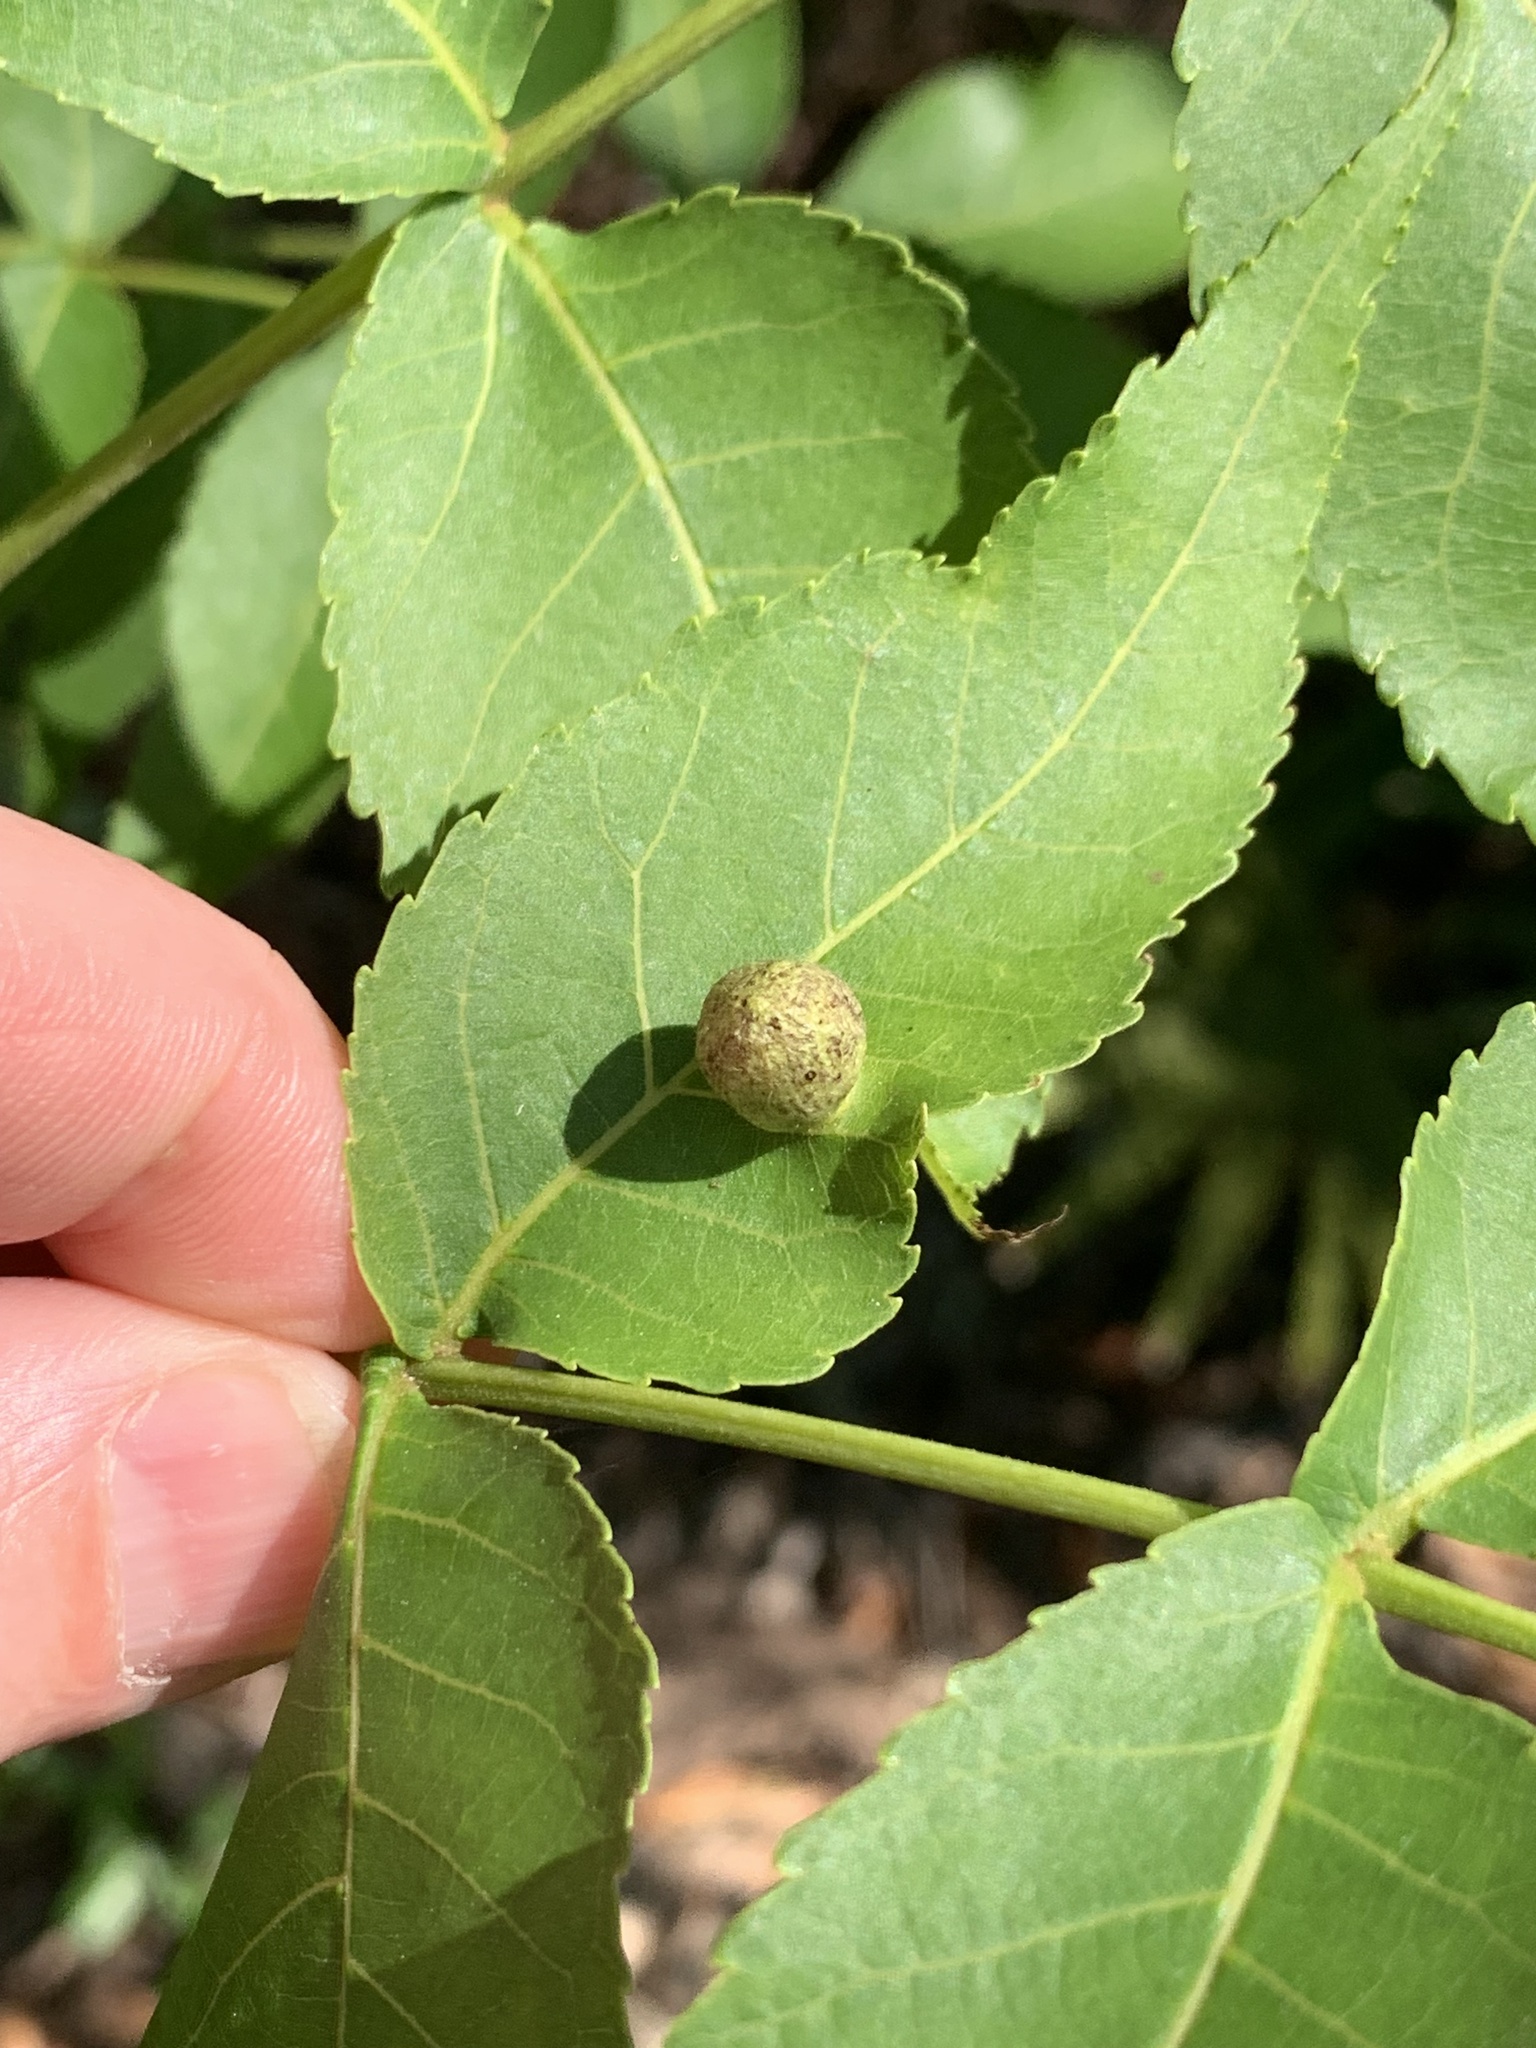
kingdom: Animalia
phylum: Arthropoda
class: Insecta
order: Hemiptera
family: Phylloxeridae
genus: Daktulosphaira
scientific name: Daktulosphaira conicum
